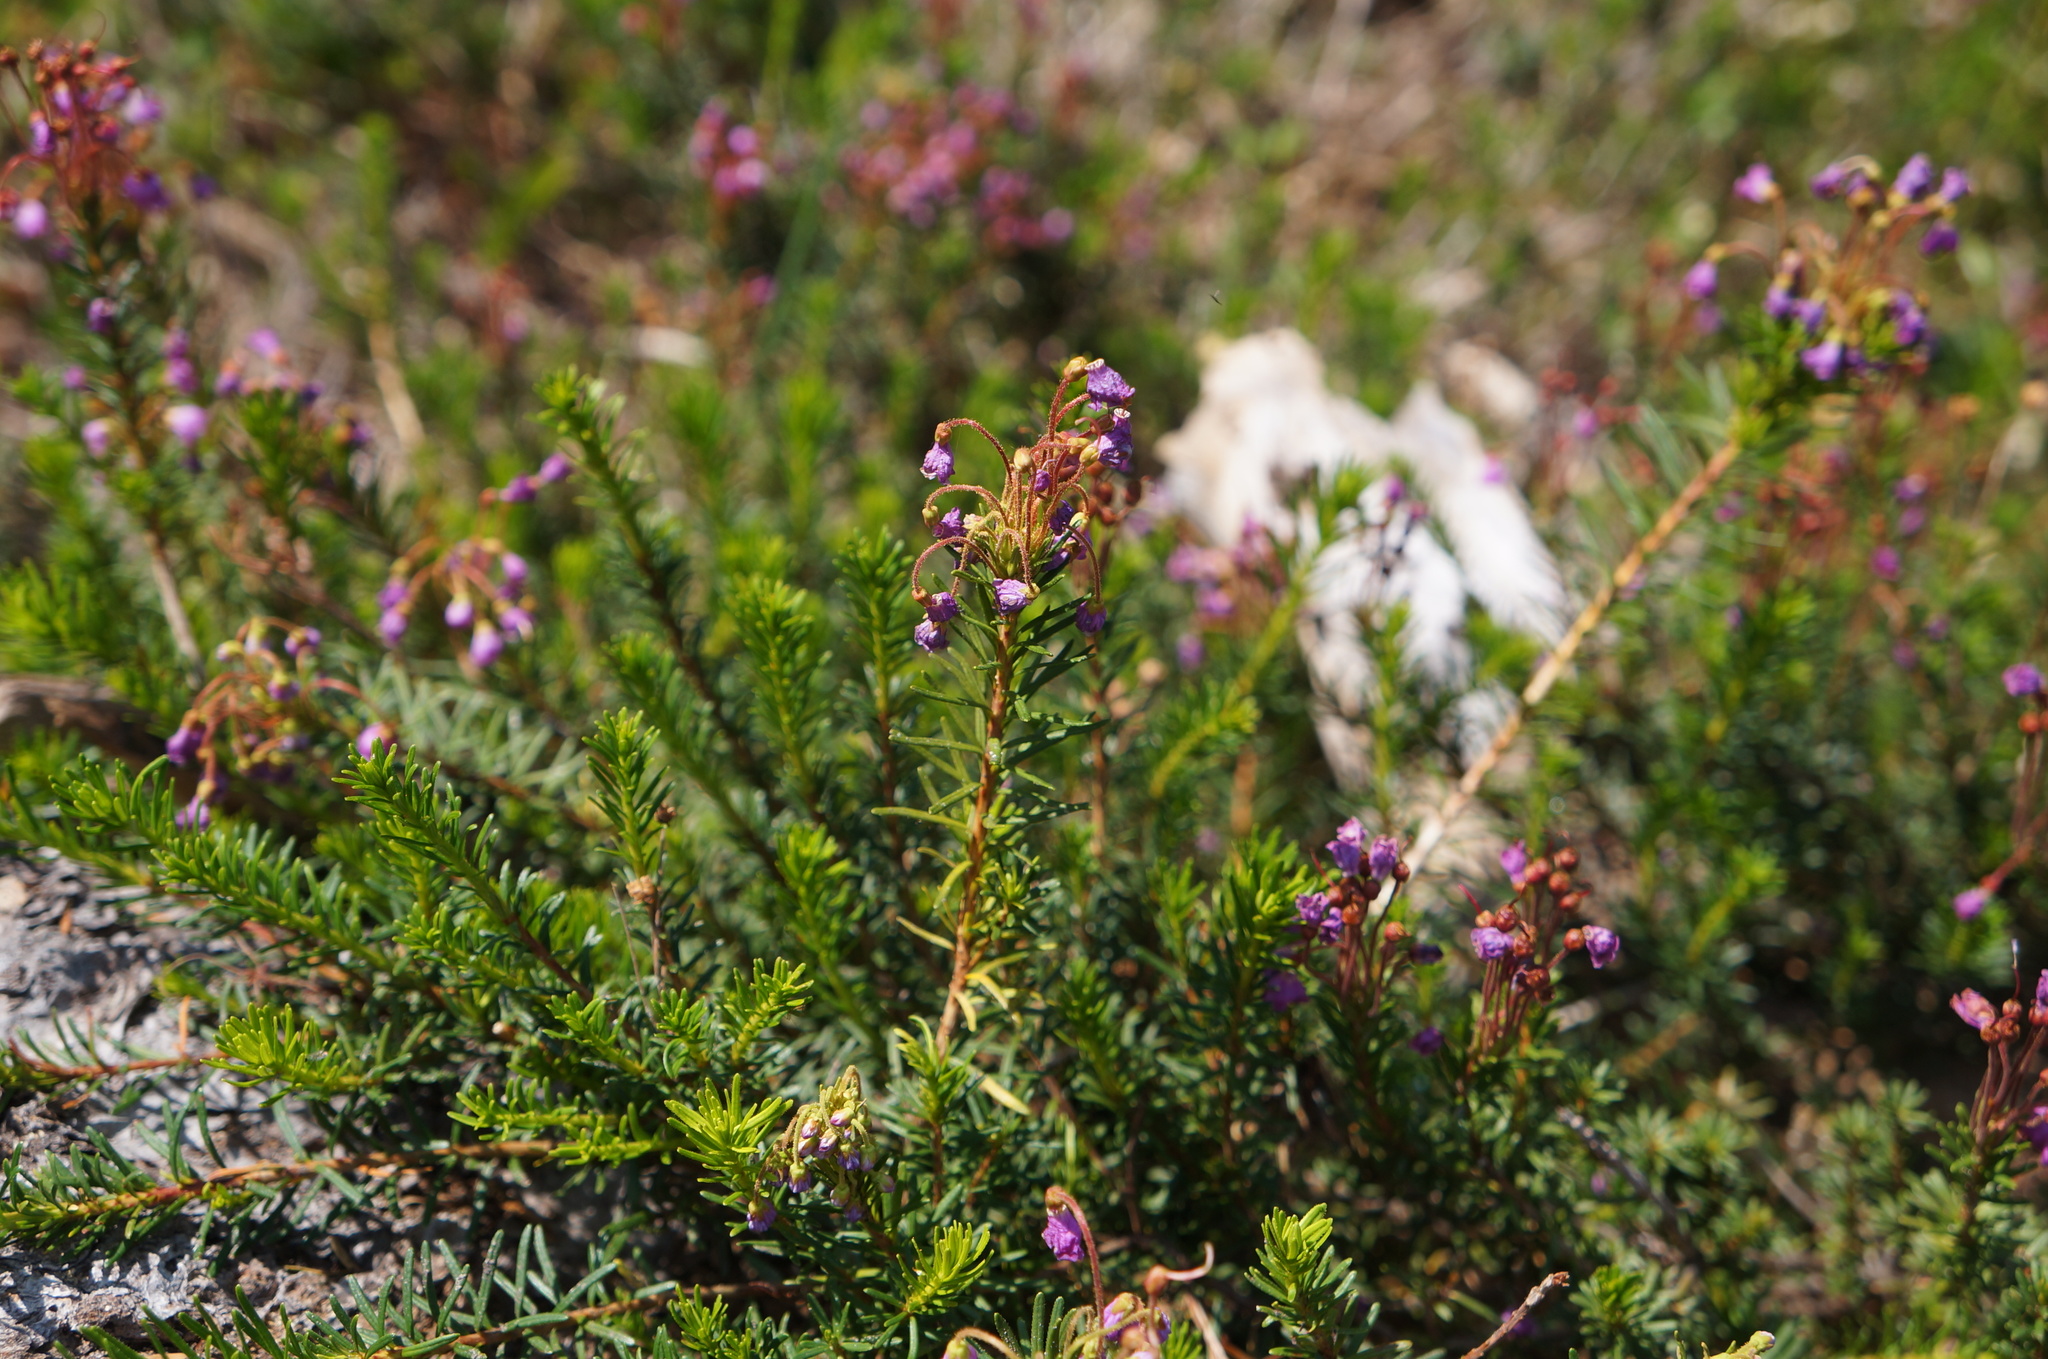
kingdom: Plantae
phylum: Tracheophyta
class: Magnoliopsida
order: Ericales
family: Ericaceae
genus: Phyllodoce
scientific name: Phyllodoce empetriformis
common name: Pink mountain heather
